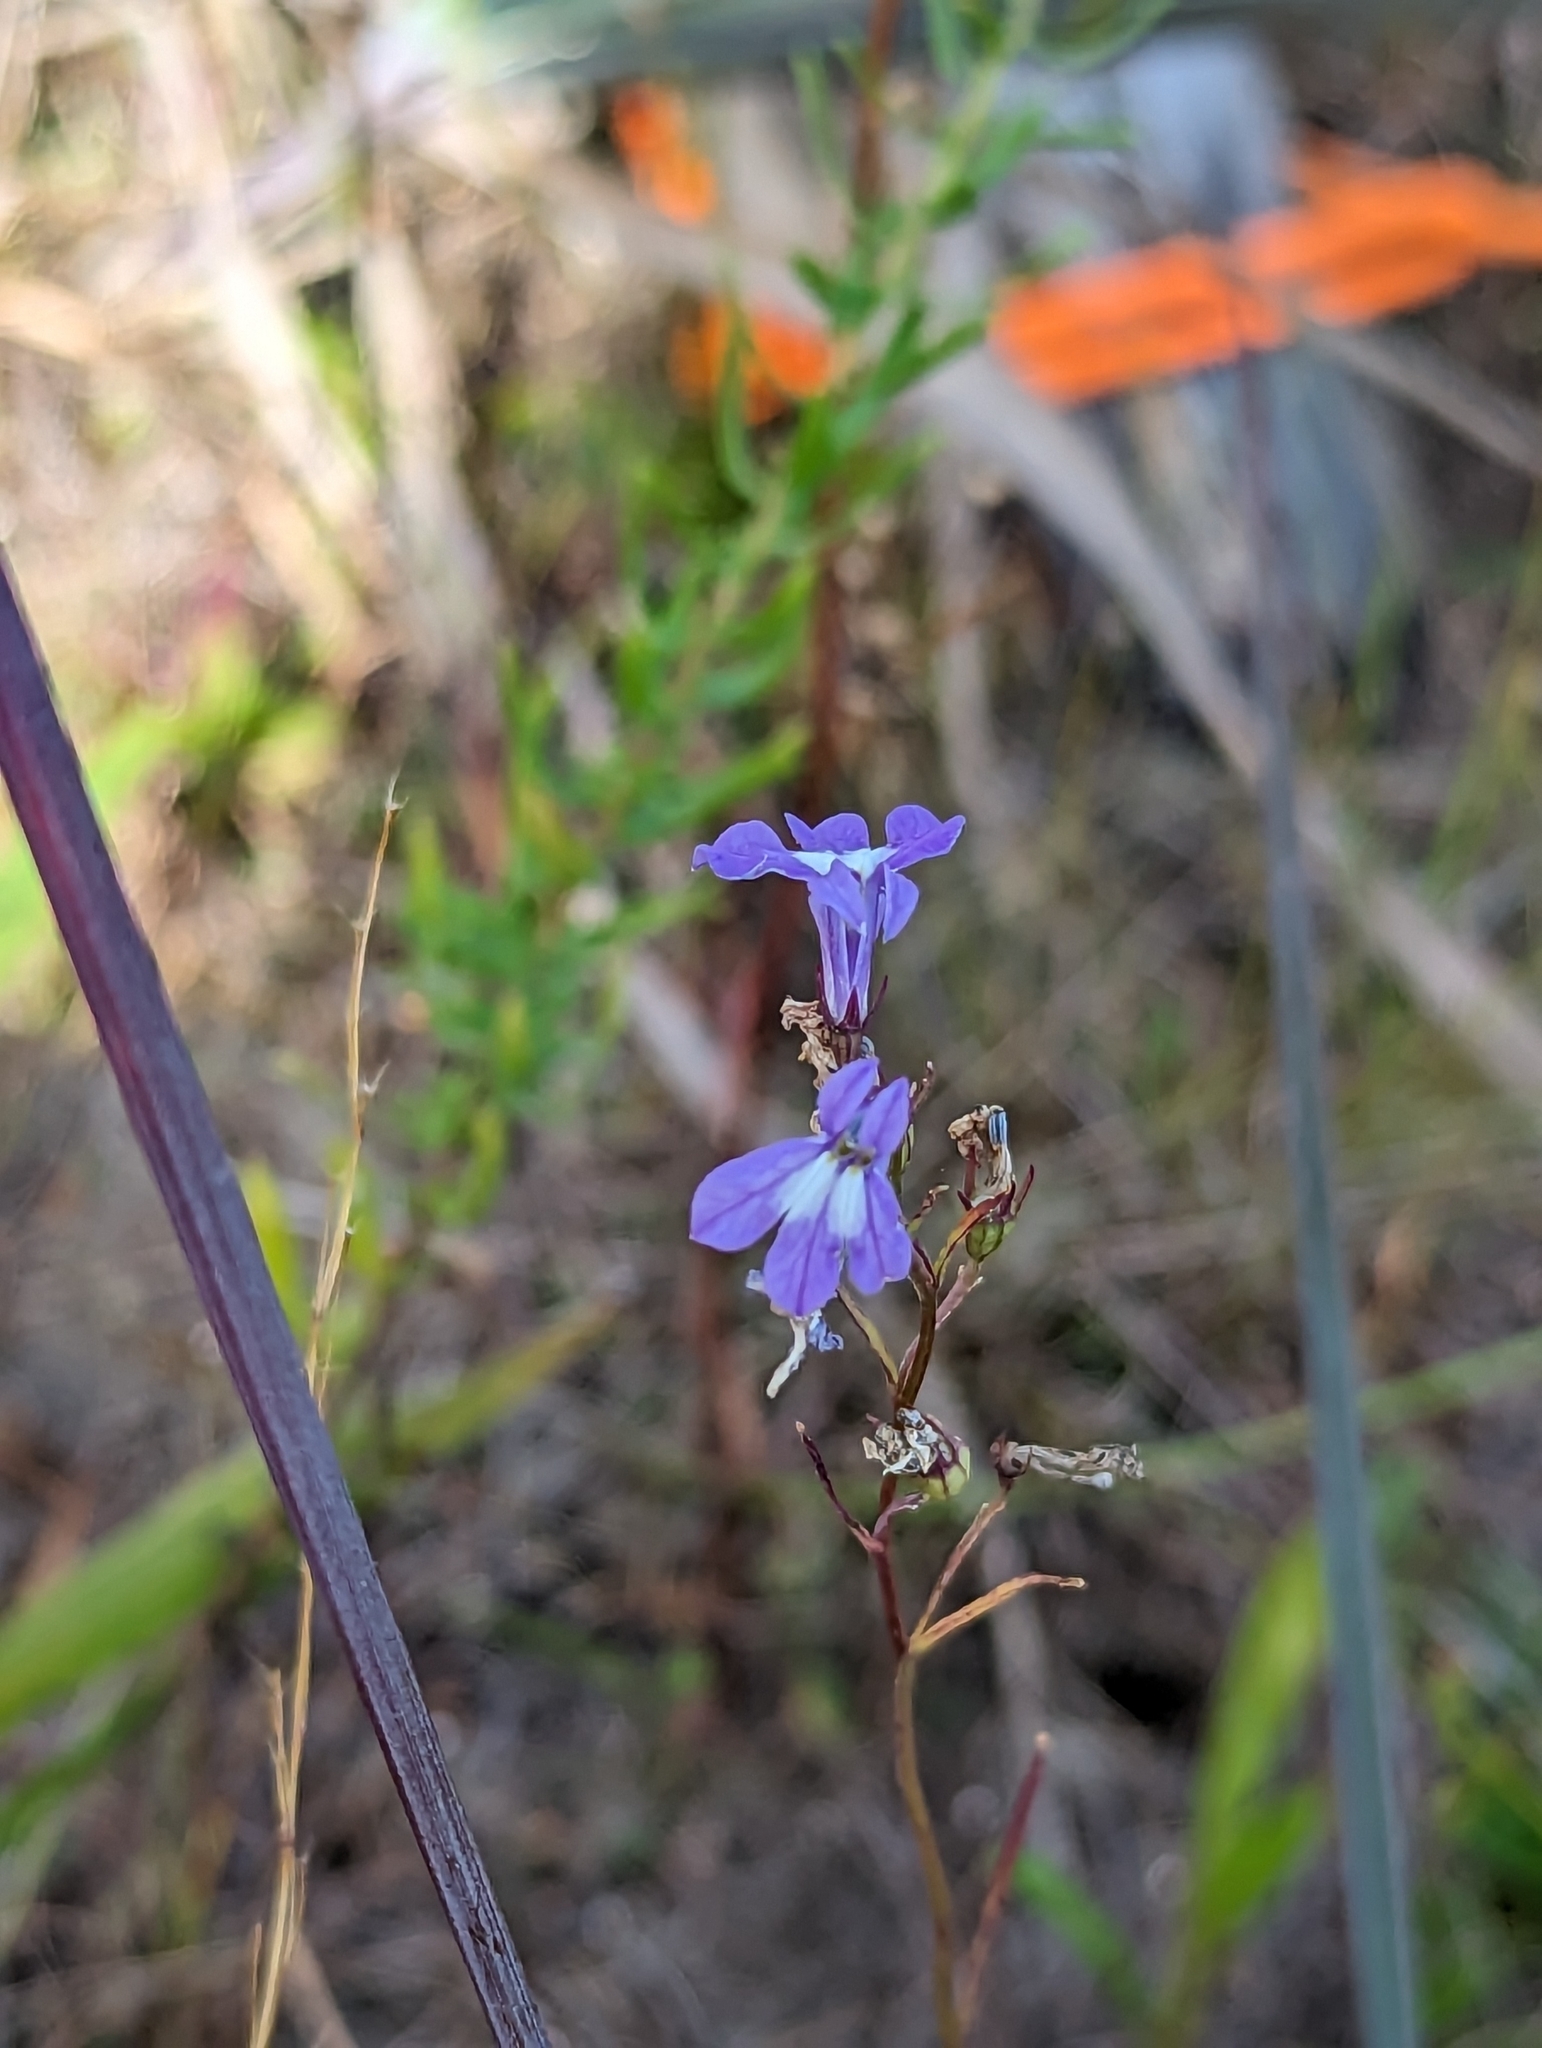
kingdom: Plantae
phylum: Tracheophyta
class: Magnoliopsida
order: Asterales
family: Campanulaceae
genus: Lobelia
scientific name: Lobelia kalmii
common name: Kalm's lobelia
